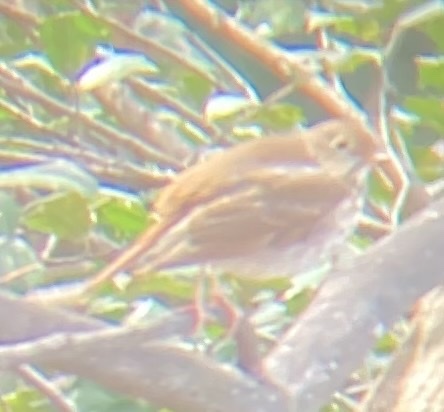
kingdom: Animalia
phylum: Chordata
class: Aves
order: Passeriformes
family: Turdidae
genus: Catharus
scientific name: Catharus guttatus
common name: Hermit thrush
